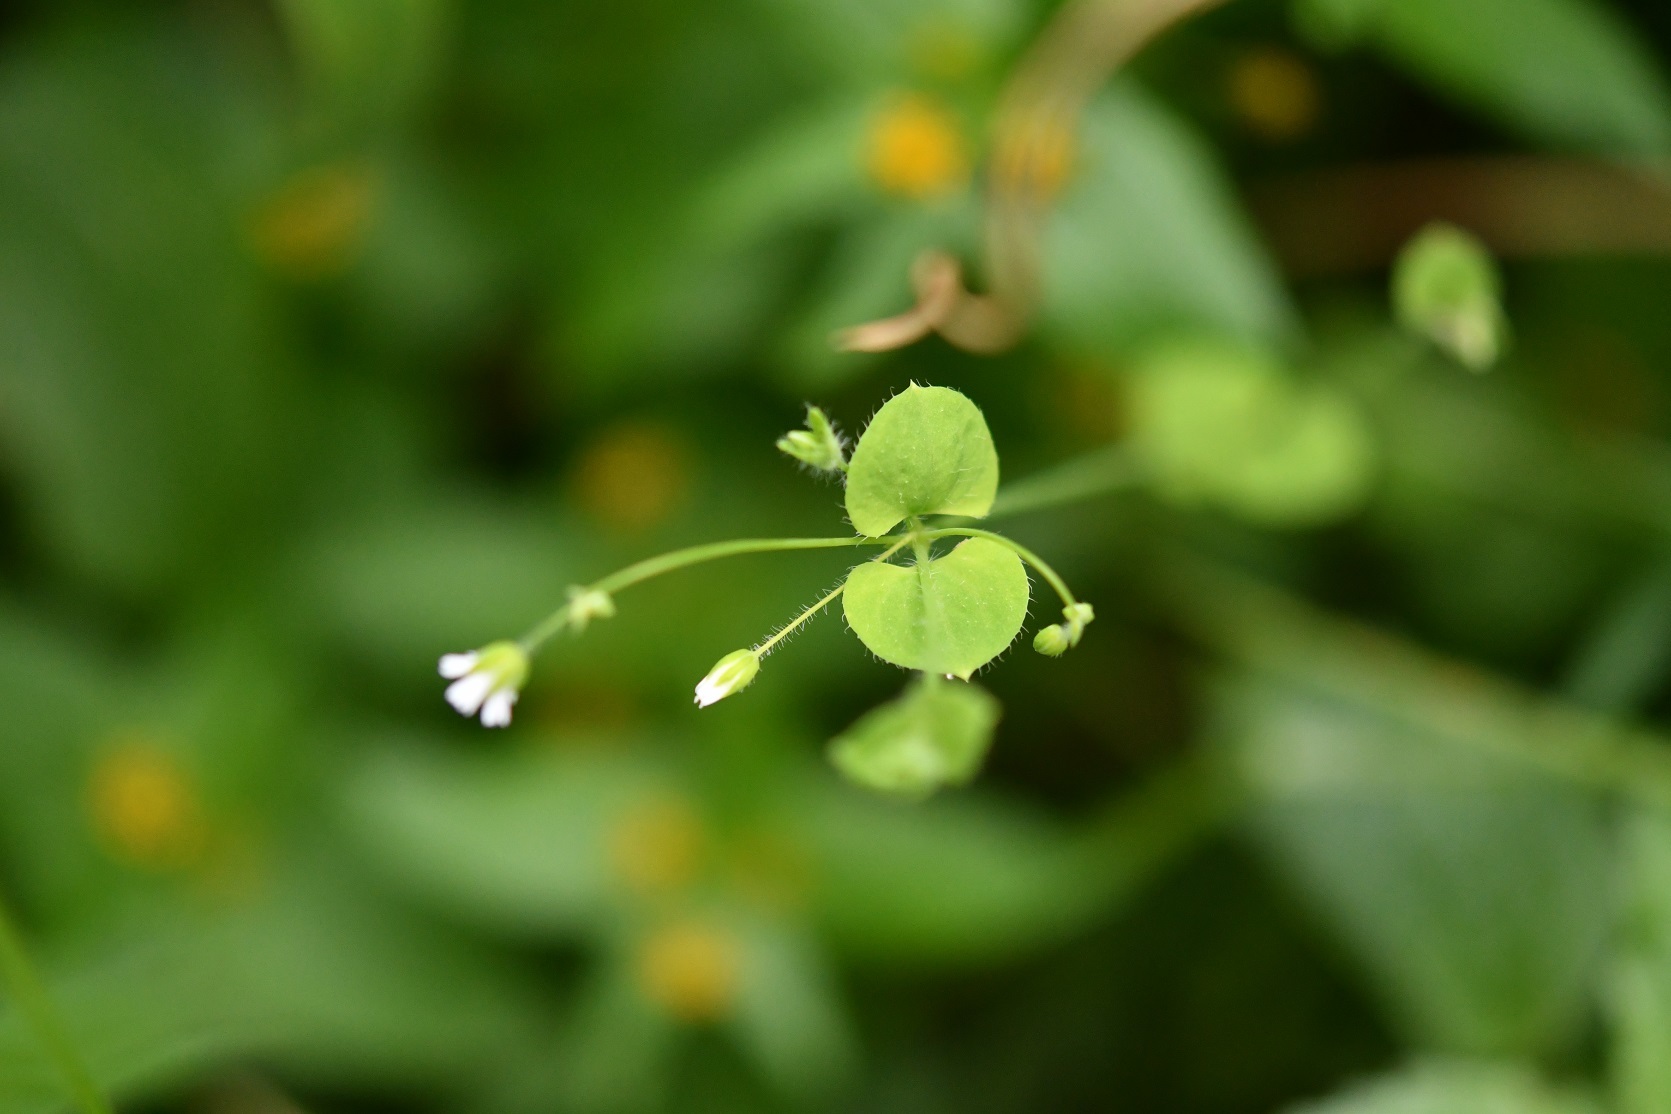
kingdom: Plantae
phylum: Tracheophyta
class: Magnoliopsida
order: Caryophyllales
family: Caryophyllaceae
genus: Drymaria
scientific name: Drymaria villosa
